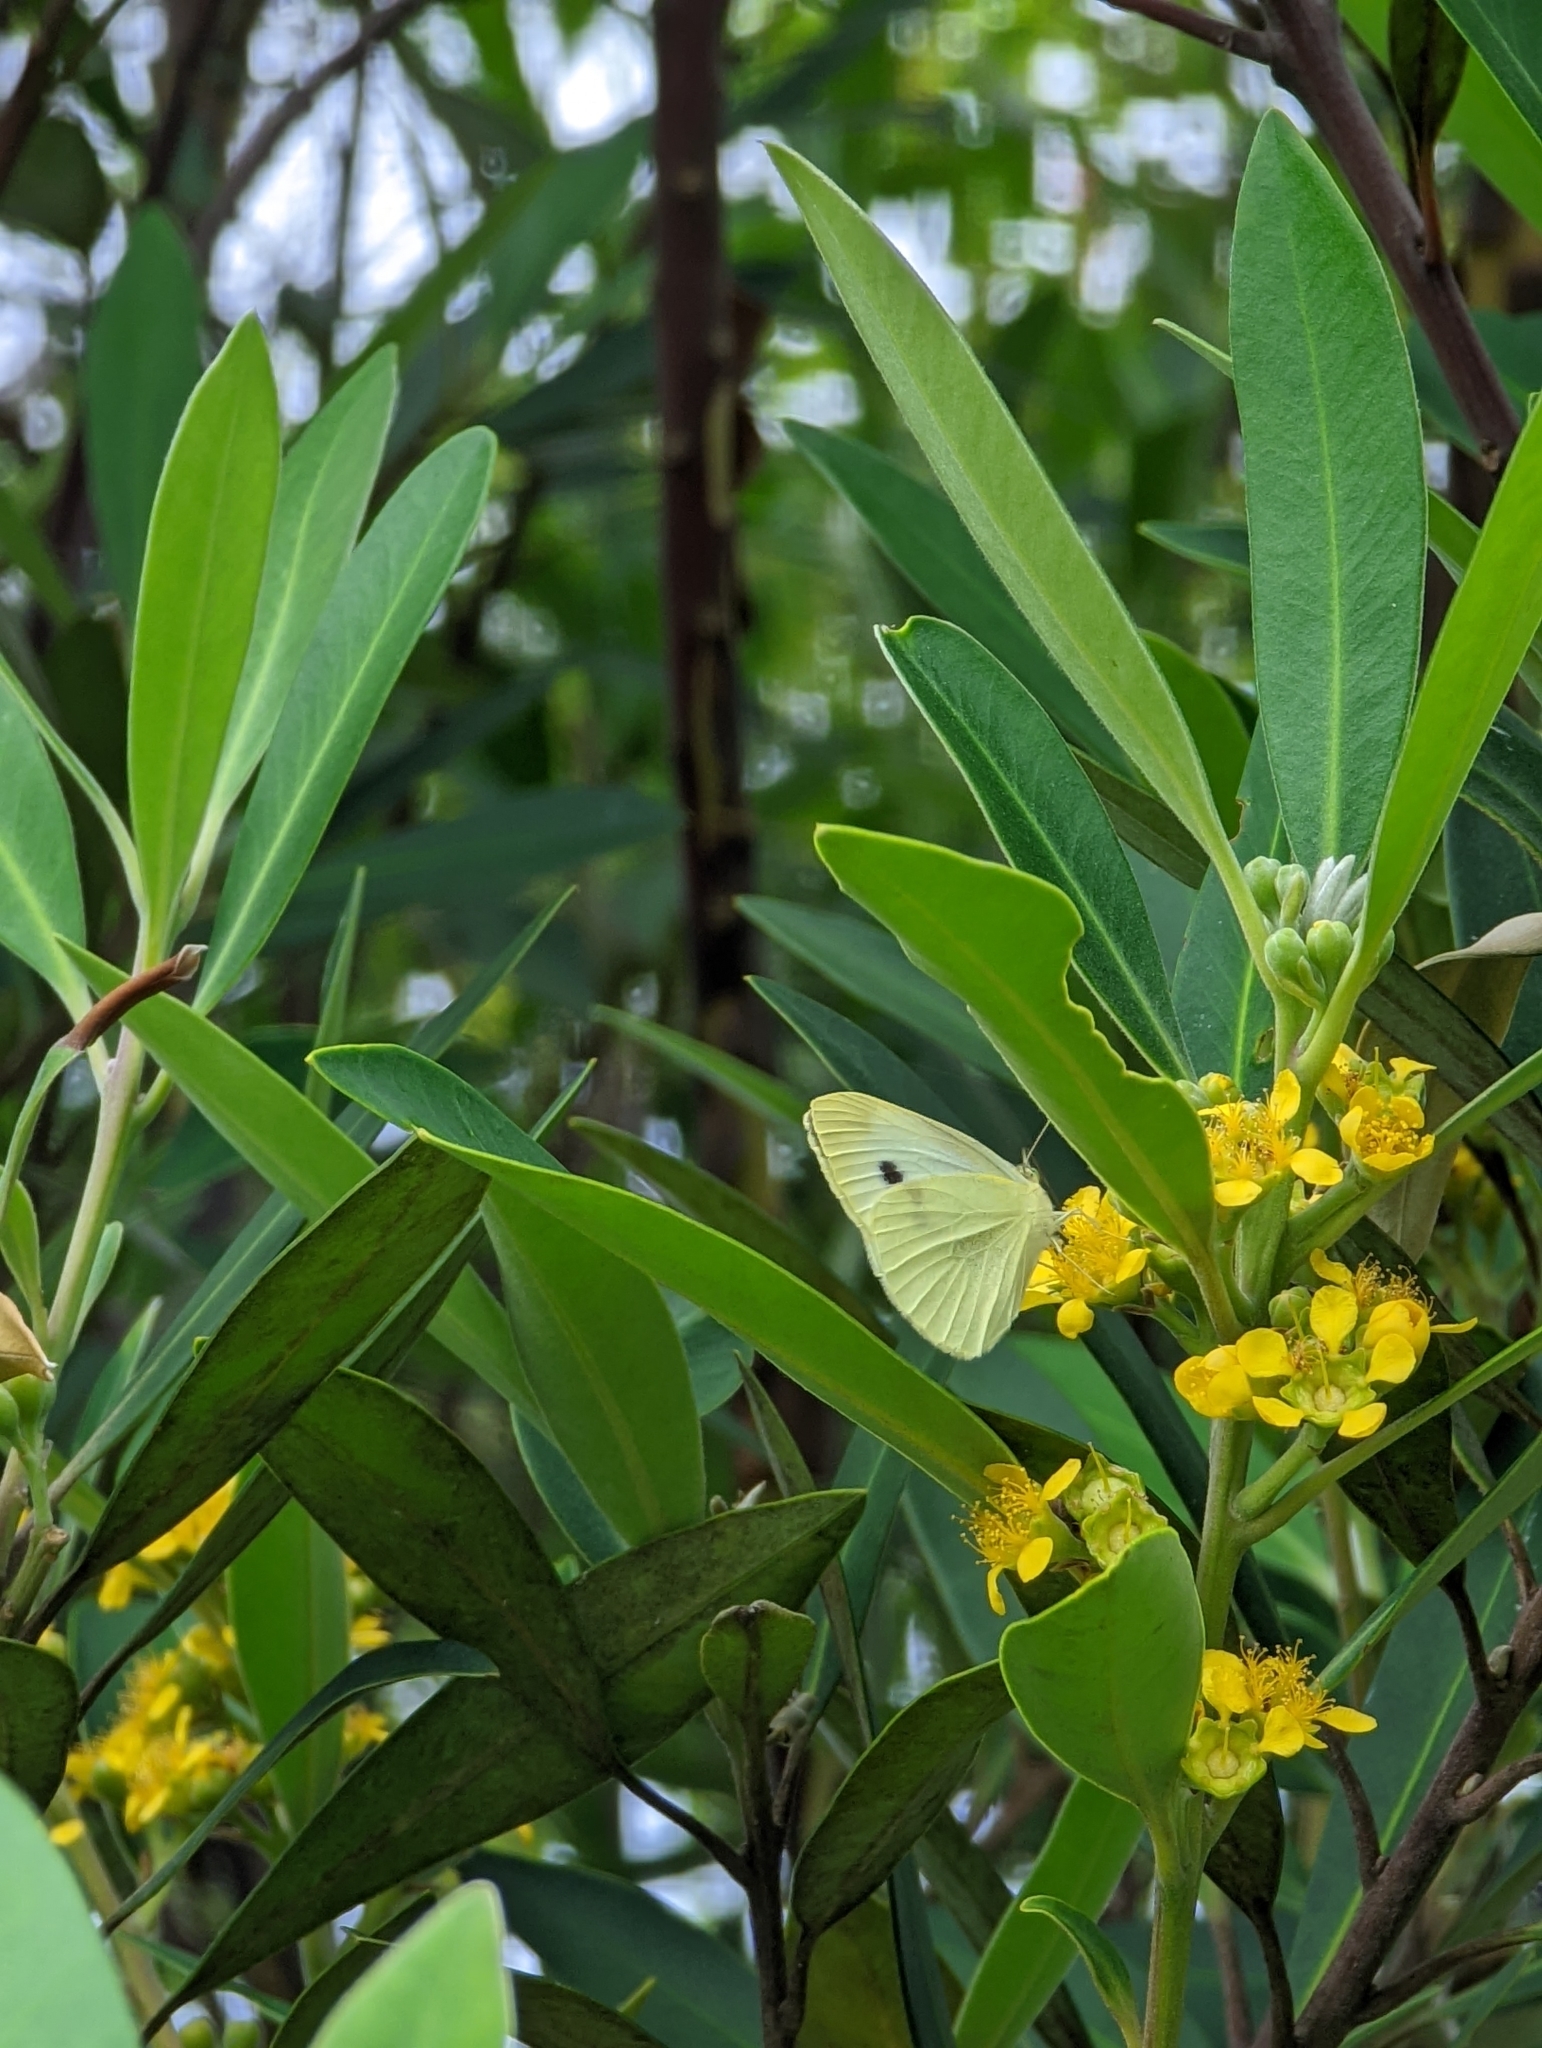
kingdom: Animalia
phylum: Arthropoda
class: Insecta
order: Lepidoptera
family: Pieridae
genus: Pieris
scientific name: Pieris rapae
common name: Small white
